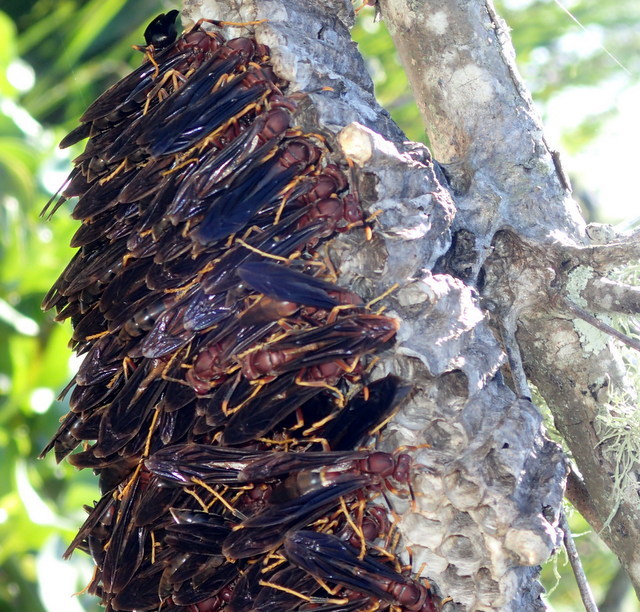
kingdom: Animalia
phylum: Arthropoda
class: Insecta
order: Hymenoptera
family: Eumenidae
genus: Polistes
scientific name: Polistes annularis
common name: Ringed paper wasp
